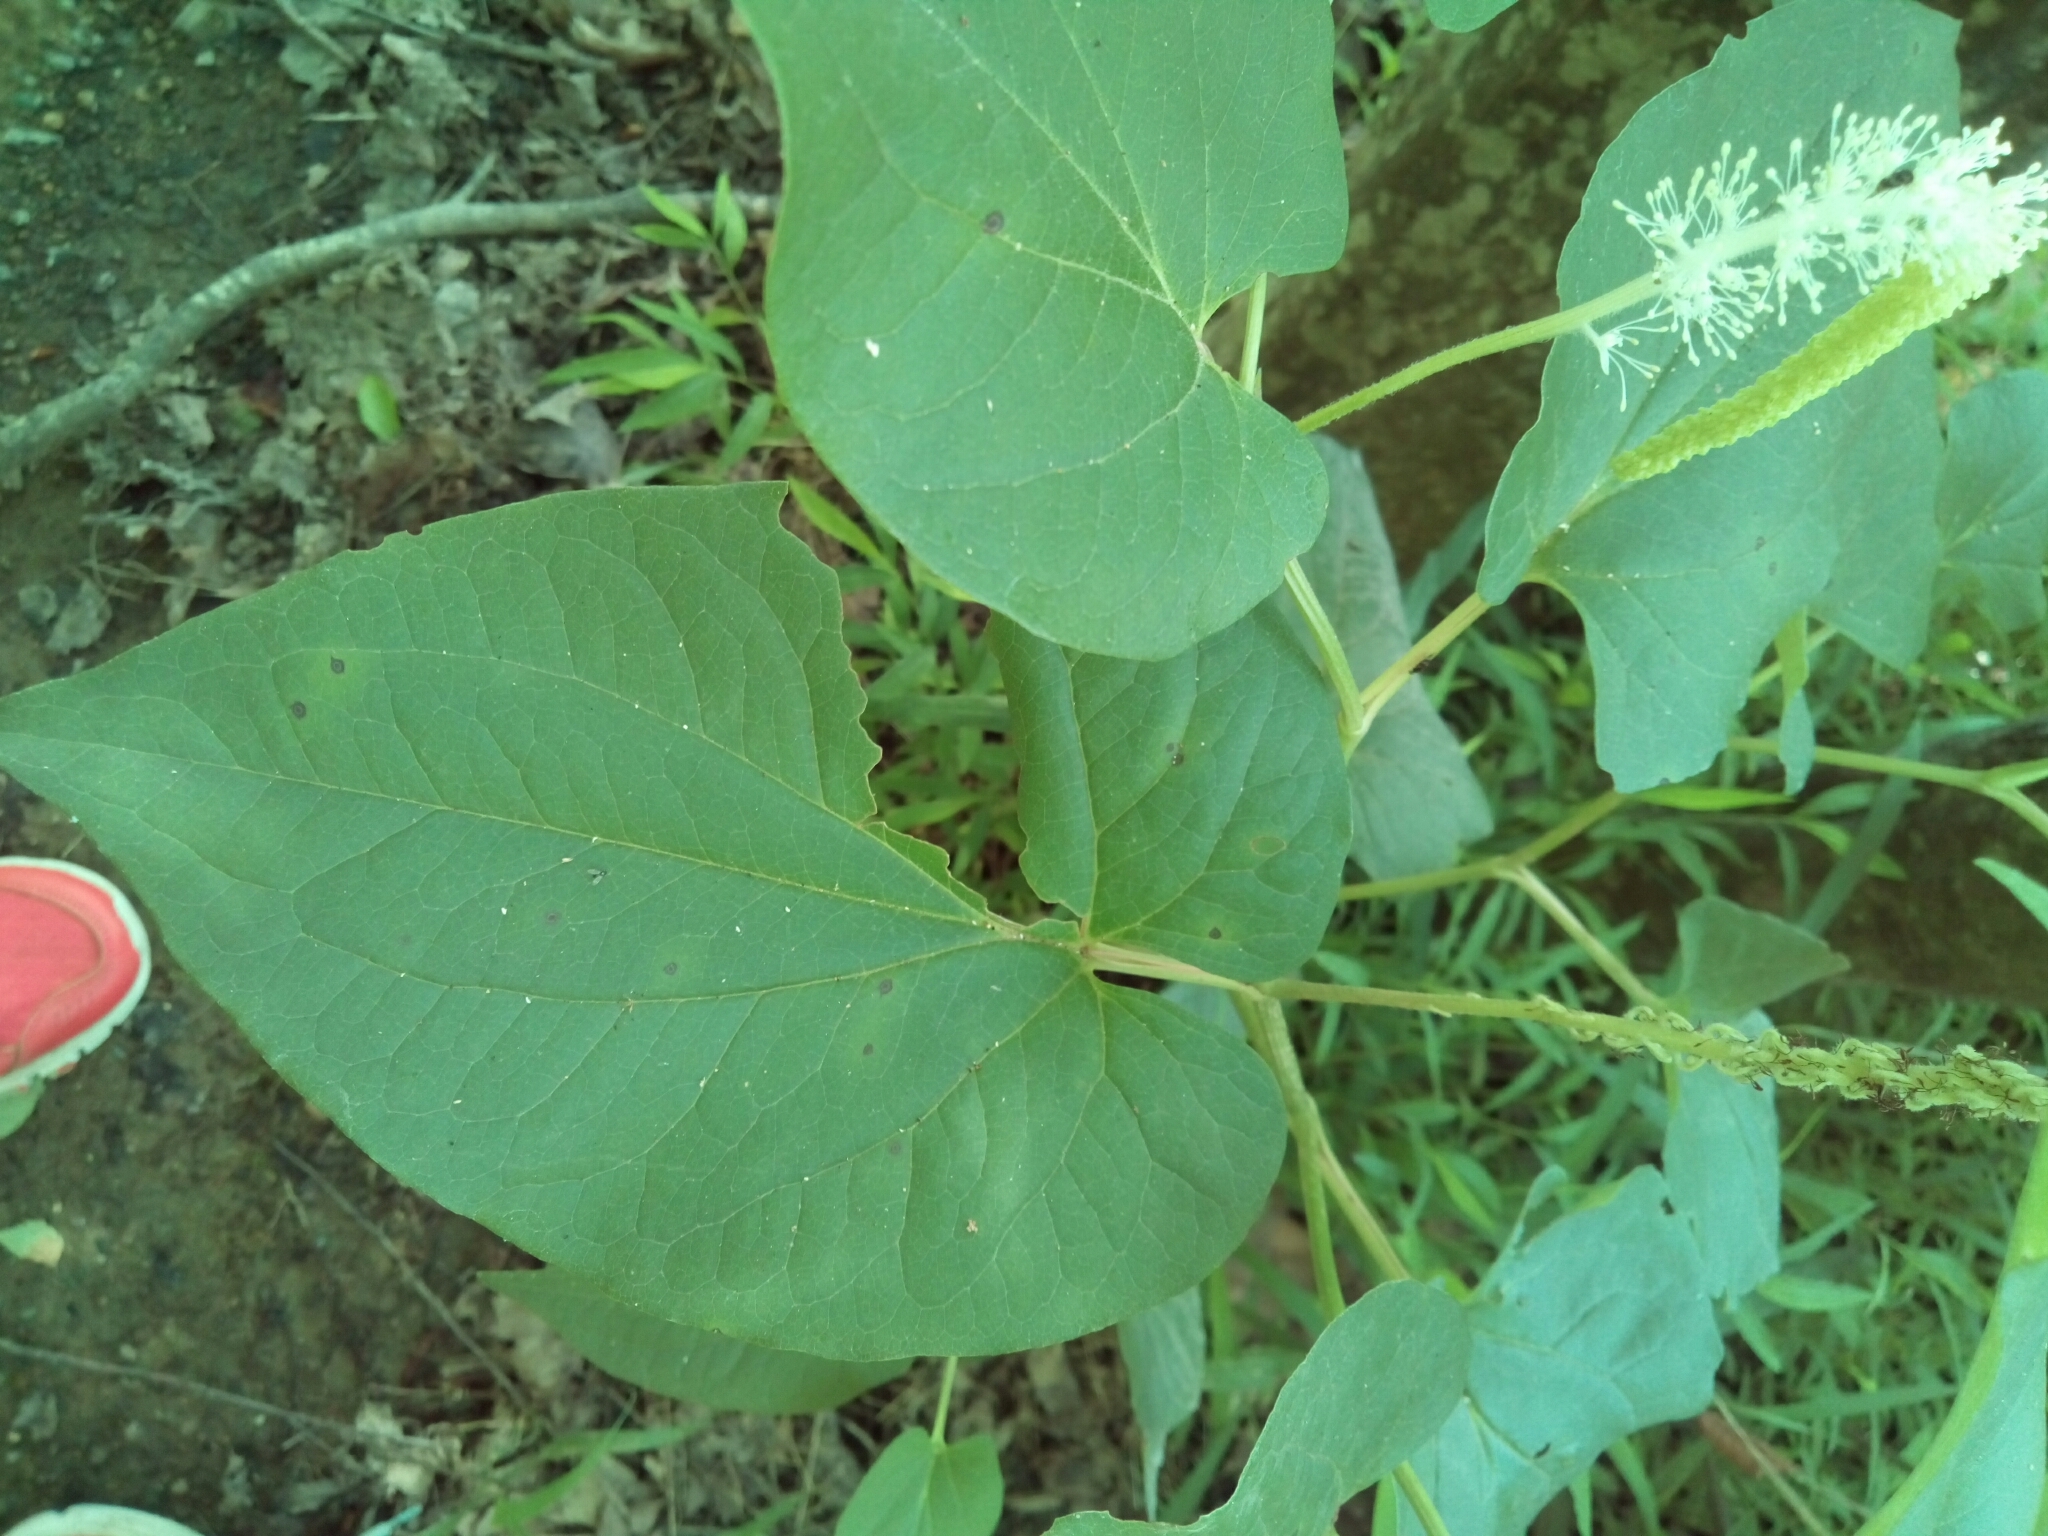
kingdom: Plantae
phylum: Tracheophyta
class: Magnoliopsida
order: Piperales
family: Saururaceae
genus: Saururus
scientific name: Saururus cernuus
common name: Lizard's-tail
